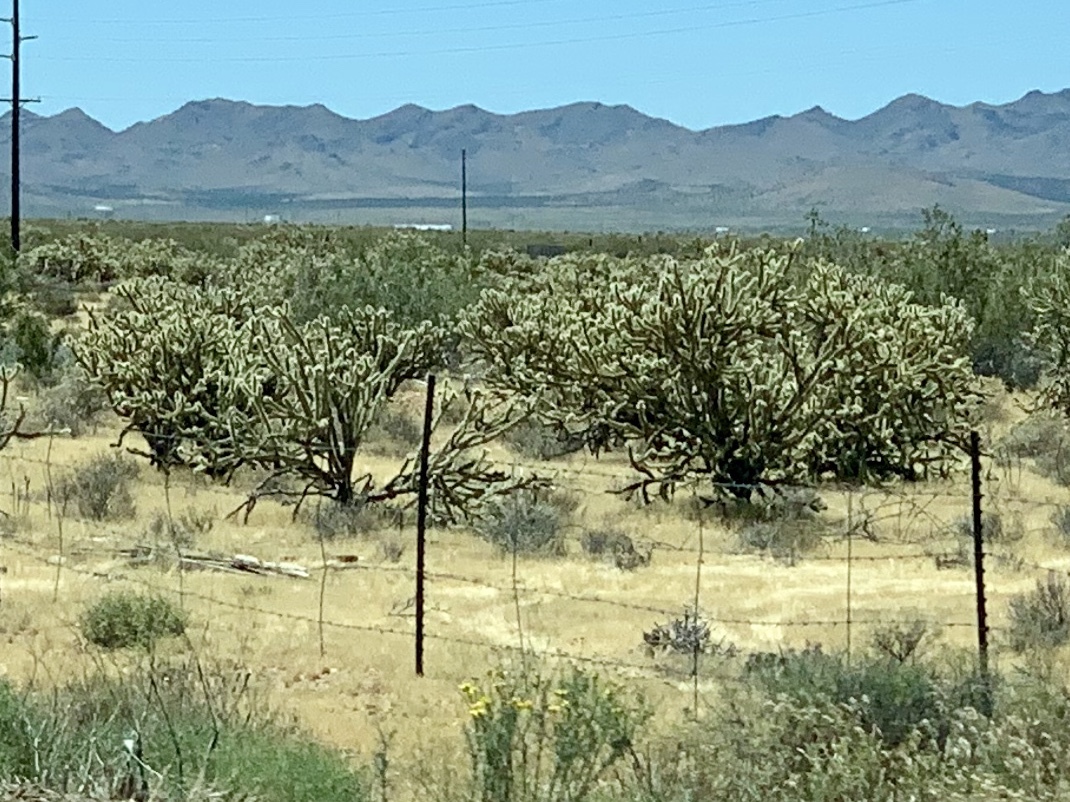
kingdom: Plantae
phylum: Tracheophyta
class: Magnoliopsida
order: Caryophyllales
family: Cactaceae
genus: Cylindropuntia
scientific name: Cylindropuntia acanthocarpa
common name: Buckhorn cholla
